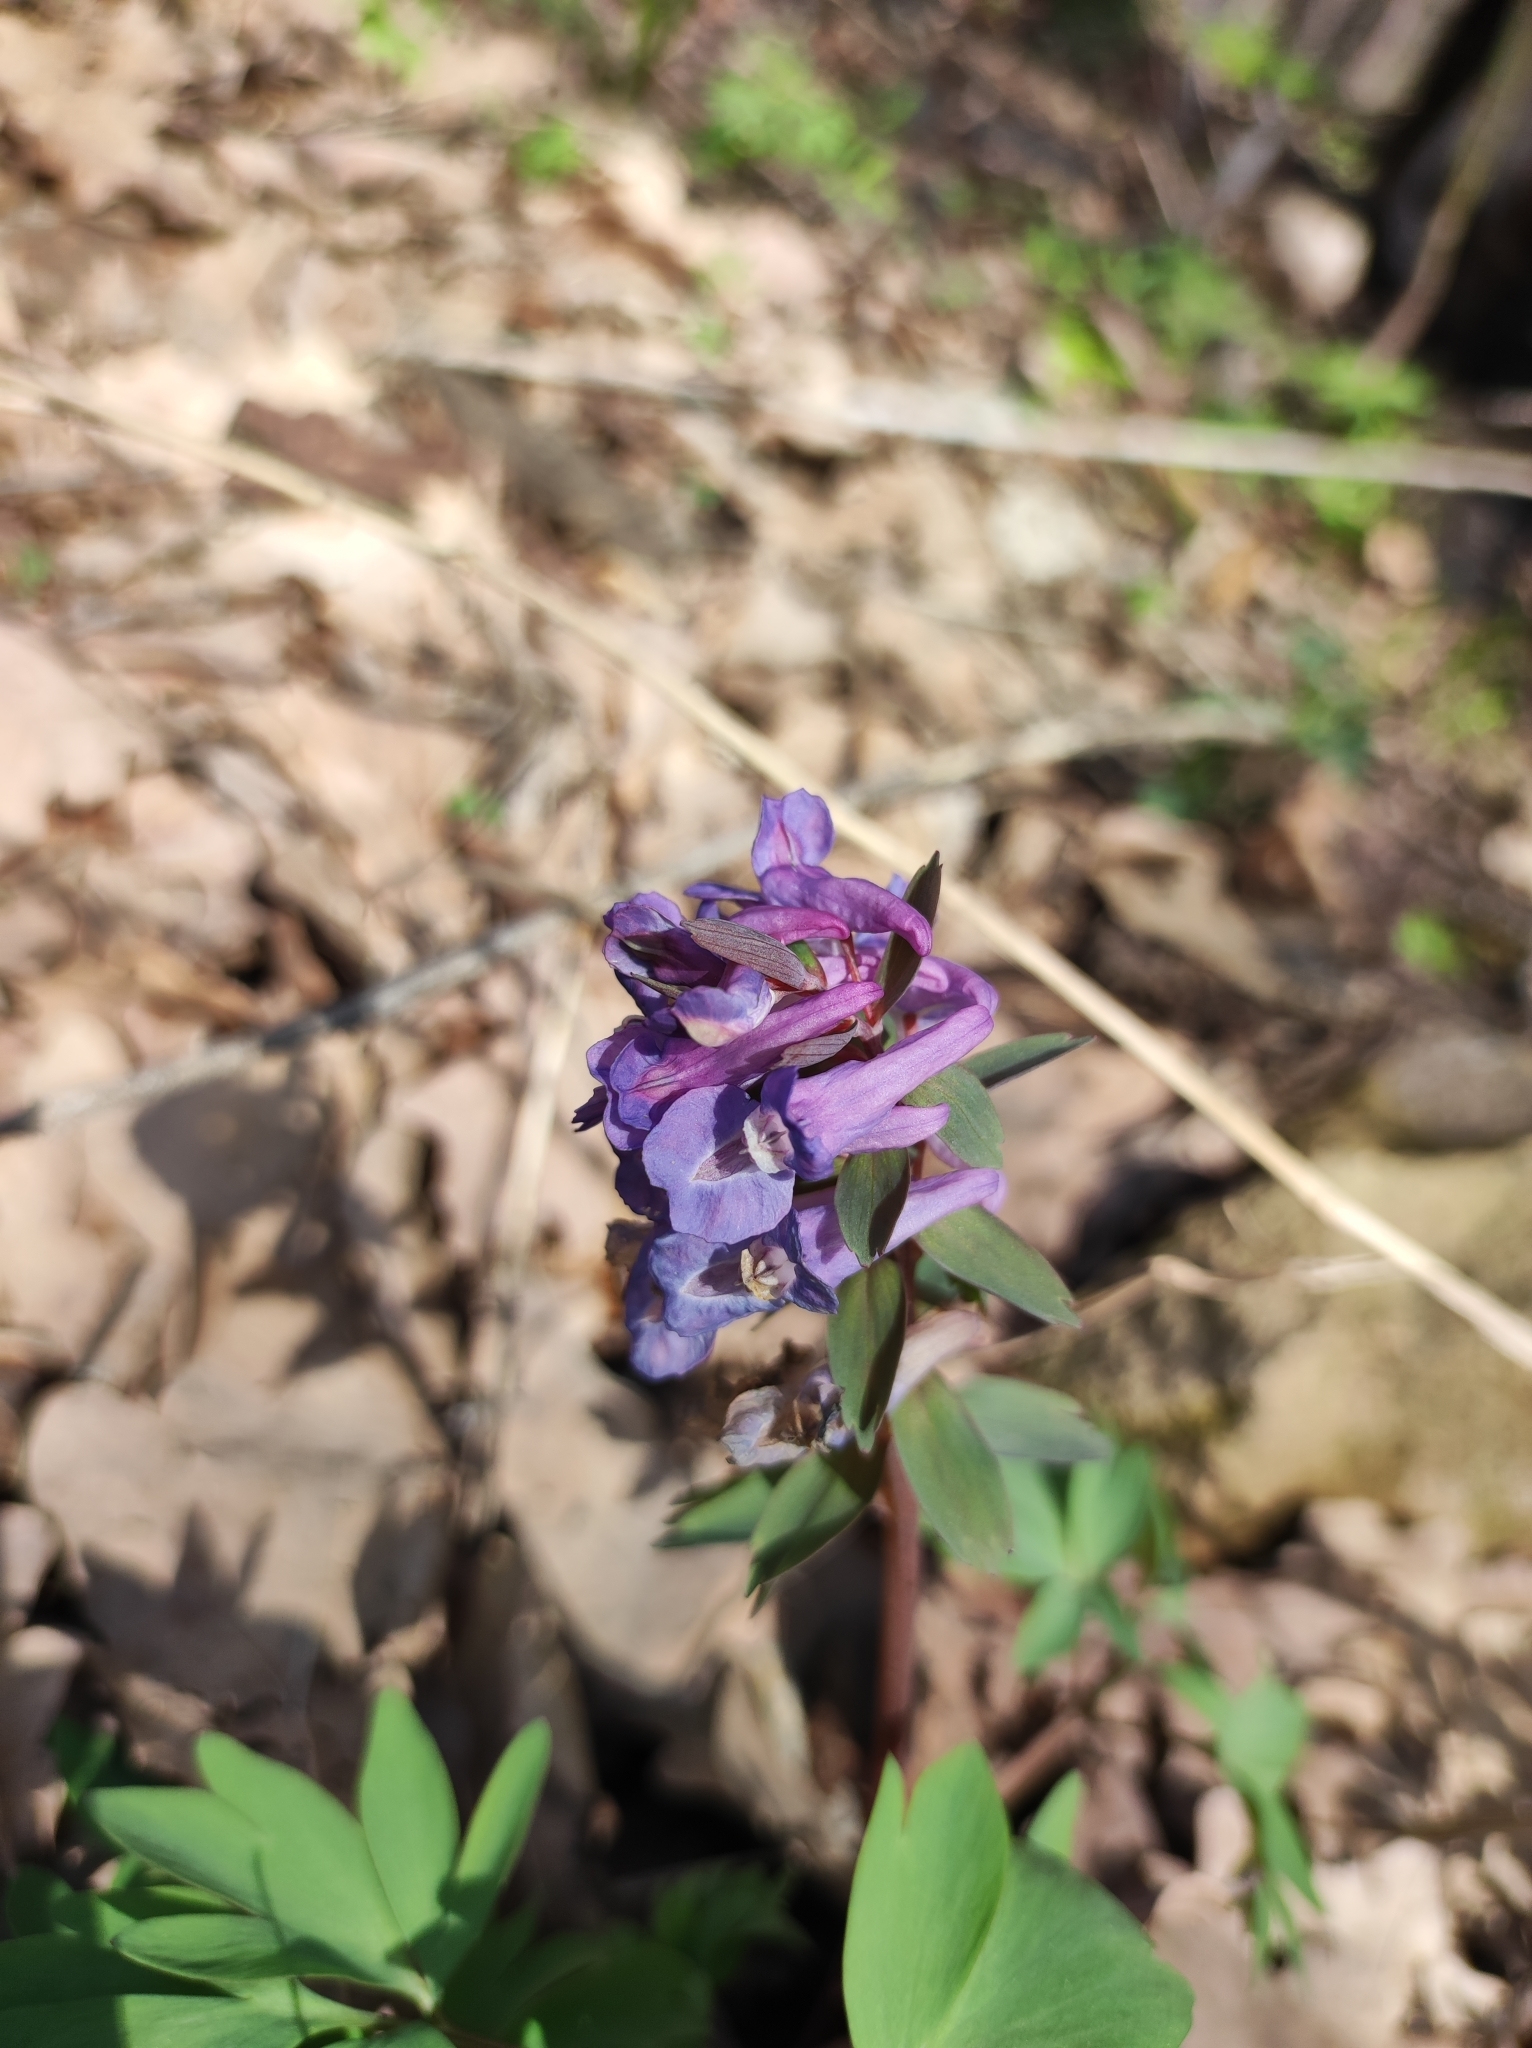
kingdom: Plantae
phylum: Tracheophyta
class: Magnoliopsida
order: Ranunculales
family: Papaveraceae
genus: Corydalis
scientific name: Corydalis solida
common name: Bird-in-a-bush
